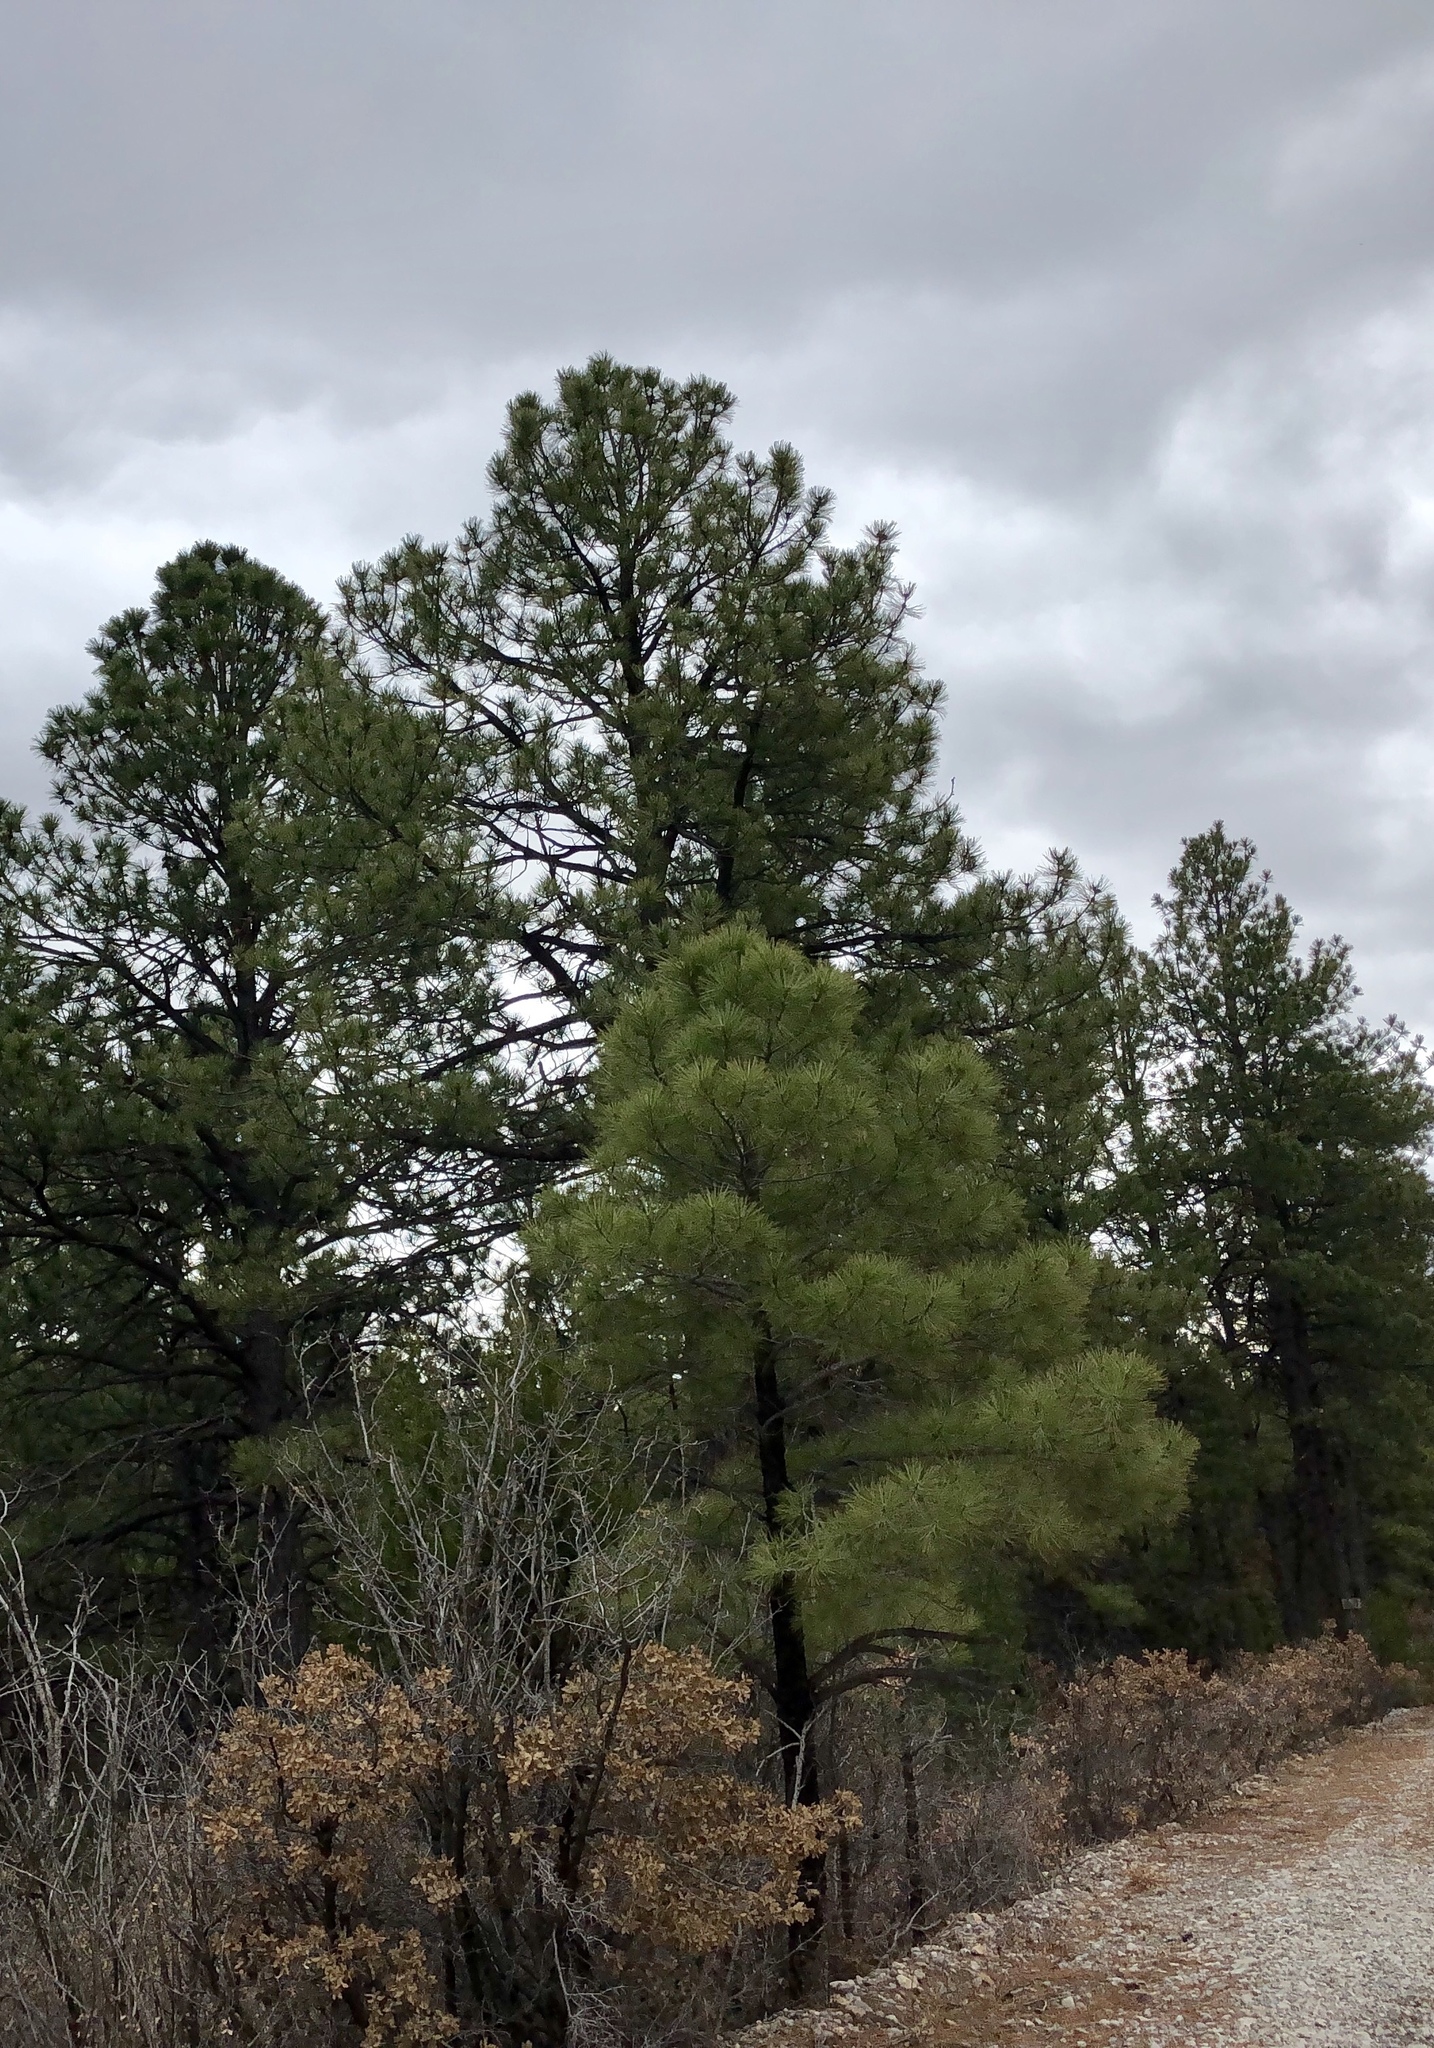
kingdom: Plantae
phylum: Tracheophyta
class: Pinopsida
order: Pinales
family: Pinaceae
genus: Pinus
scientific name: Pinus ponderosa
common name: Western yellow-pine
